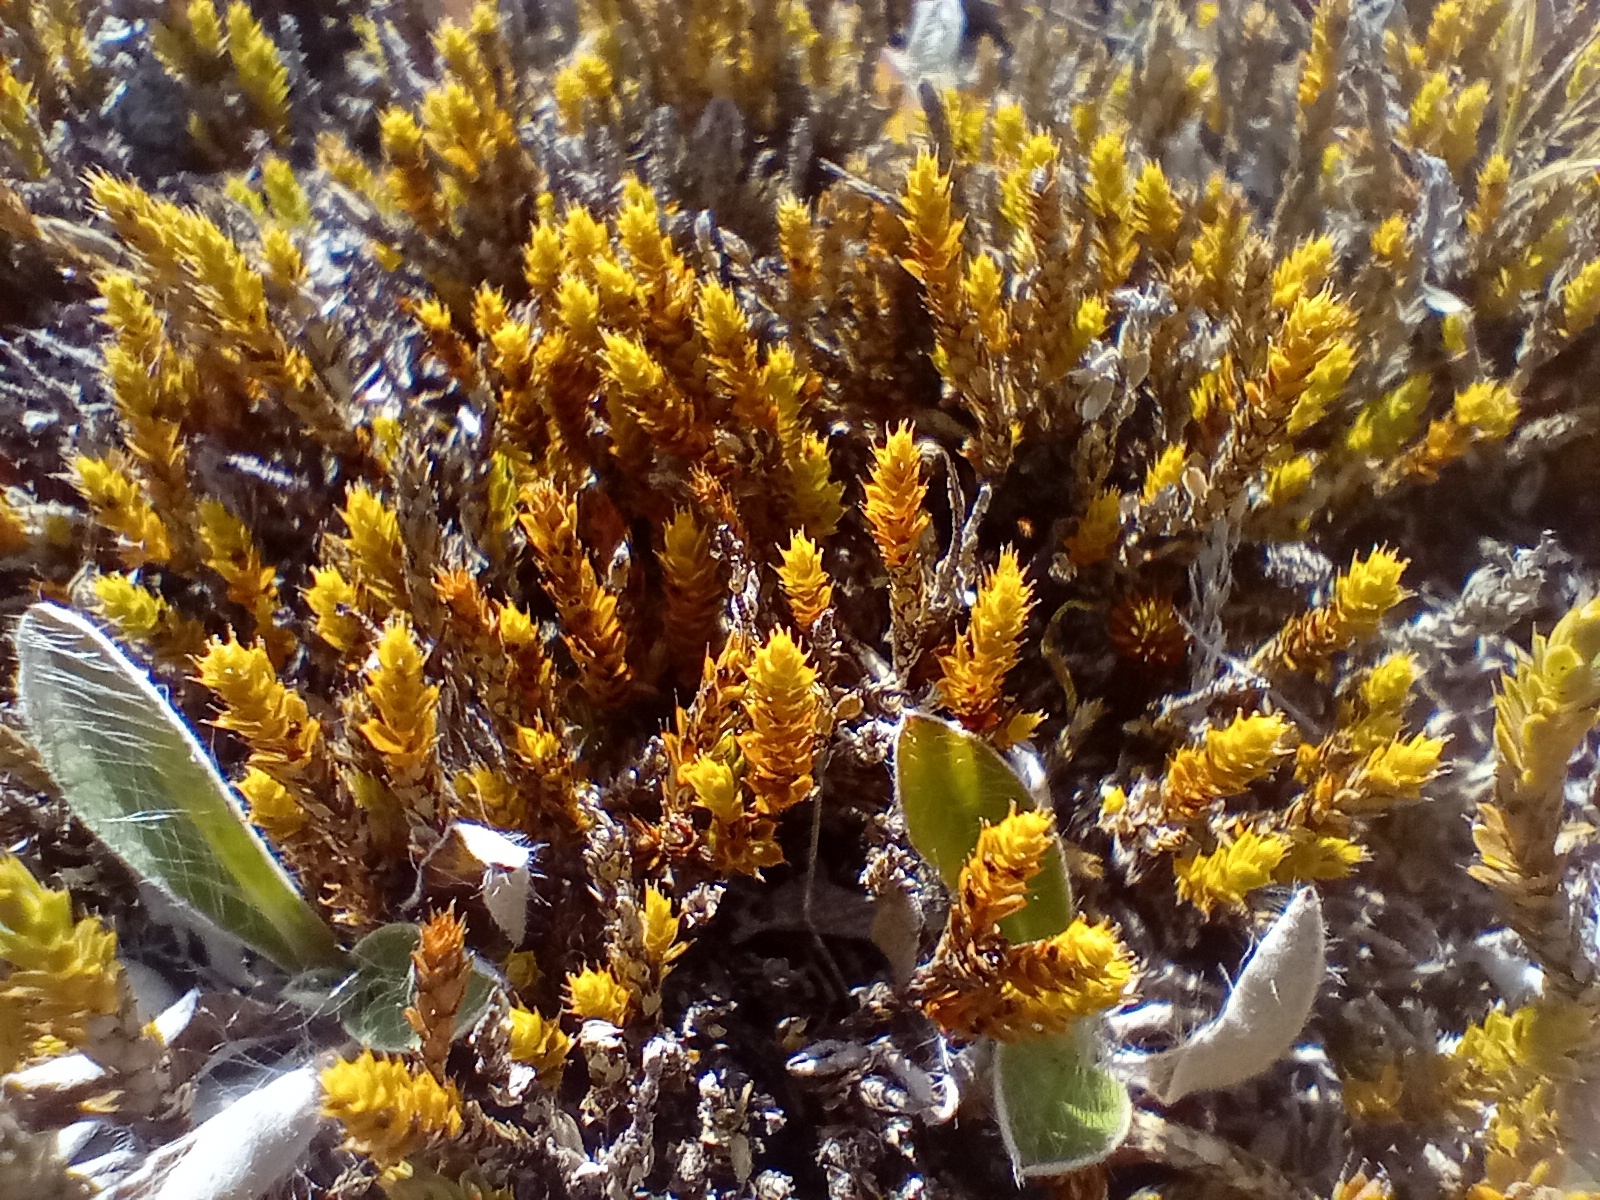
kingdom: Plantae
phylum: Tracheophyta
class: Magnoliopsida
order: Ericales
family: Ericaceae
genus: Styphelia
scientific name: Styphelia nana
